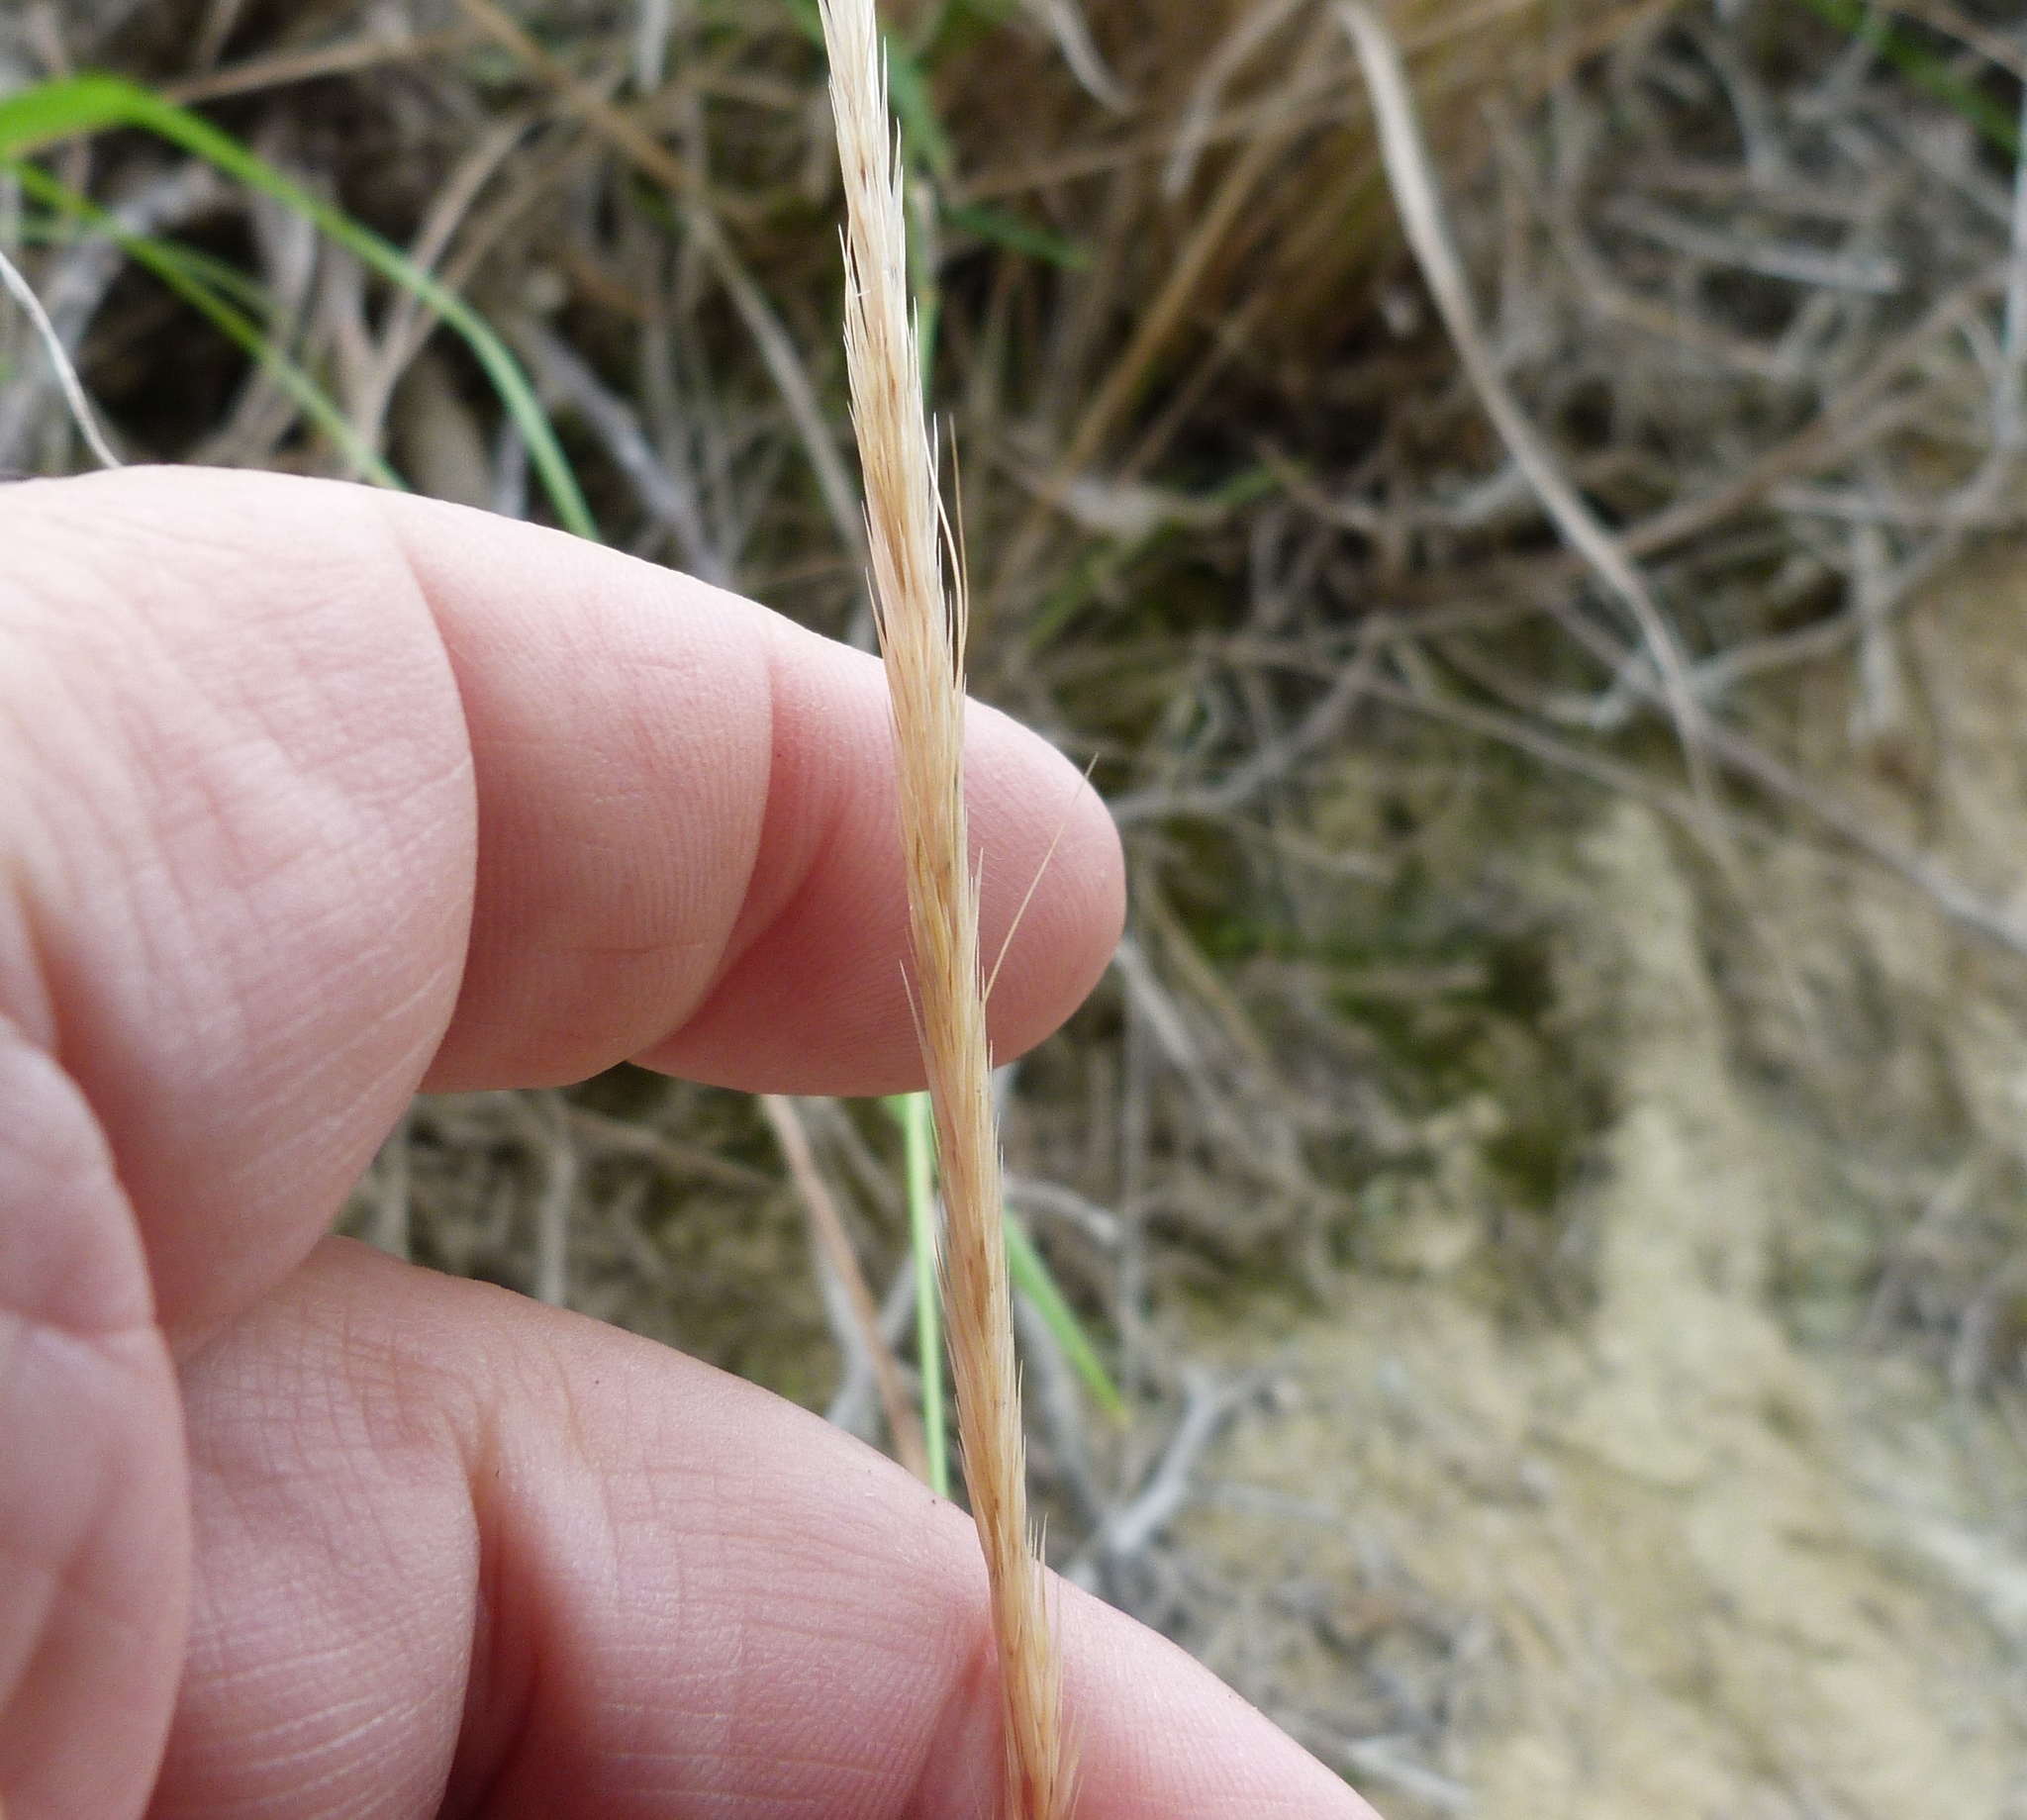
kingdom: Plantae
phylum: Tracheophyta
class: Liliopsida
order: Poales
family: Poaceae
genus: Dichelachne
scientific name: Dichelachne crinita
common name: Clovenfoot plumegrass
